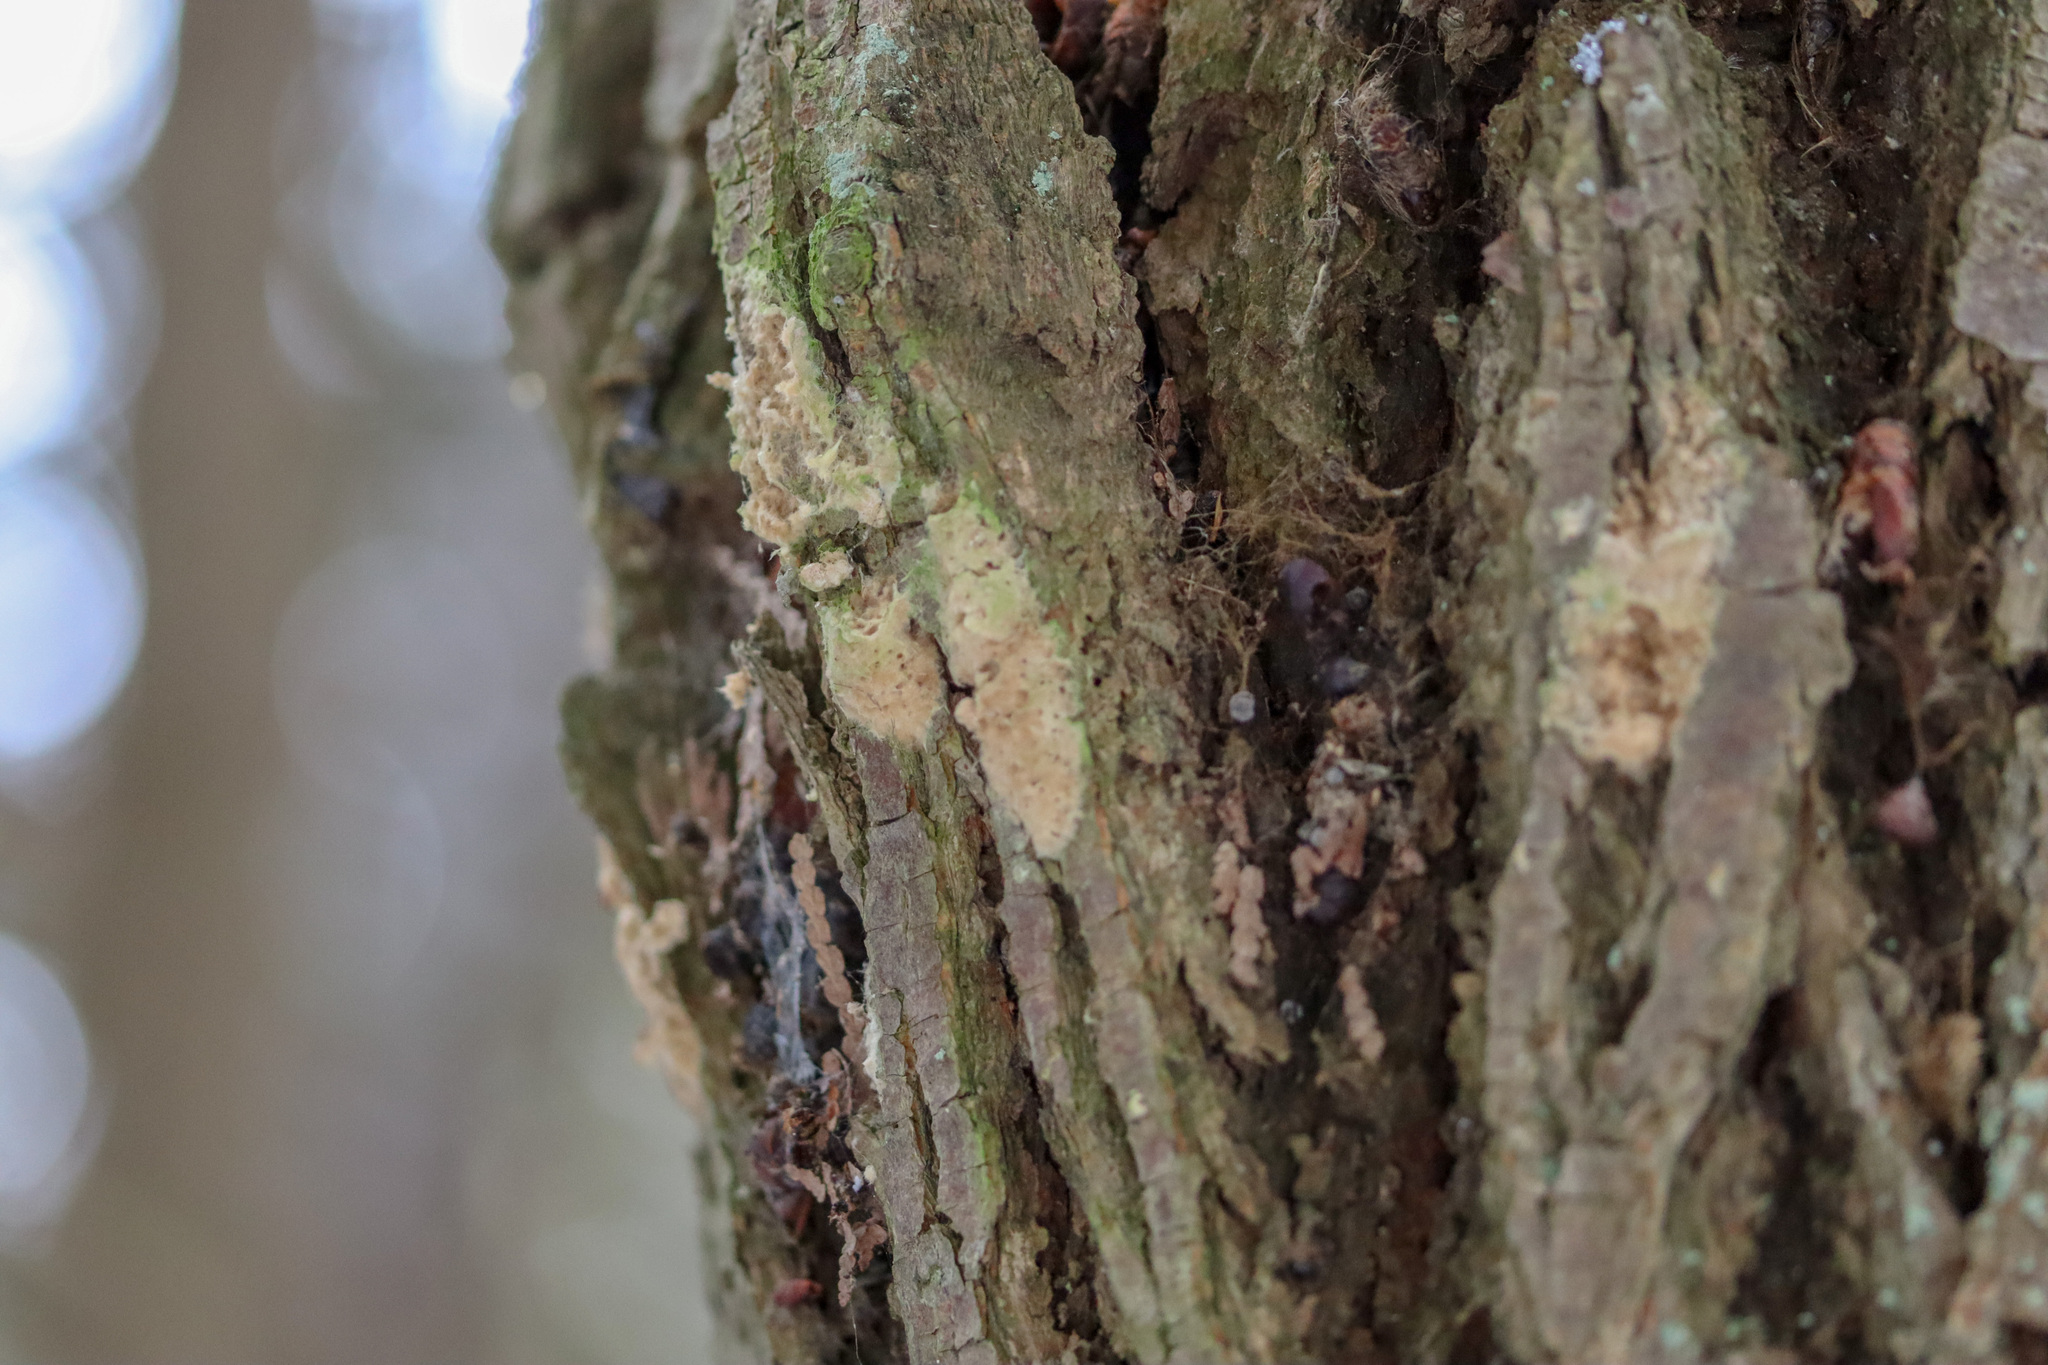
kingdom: Animalia
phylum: Arthropoda
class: Insecta
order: Lepidoptera
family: Erebidae
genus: Lymantria
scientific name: Lymantria dispar
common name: Gypsy moth
